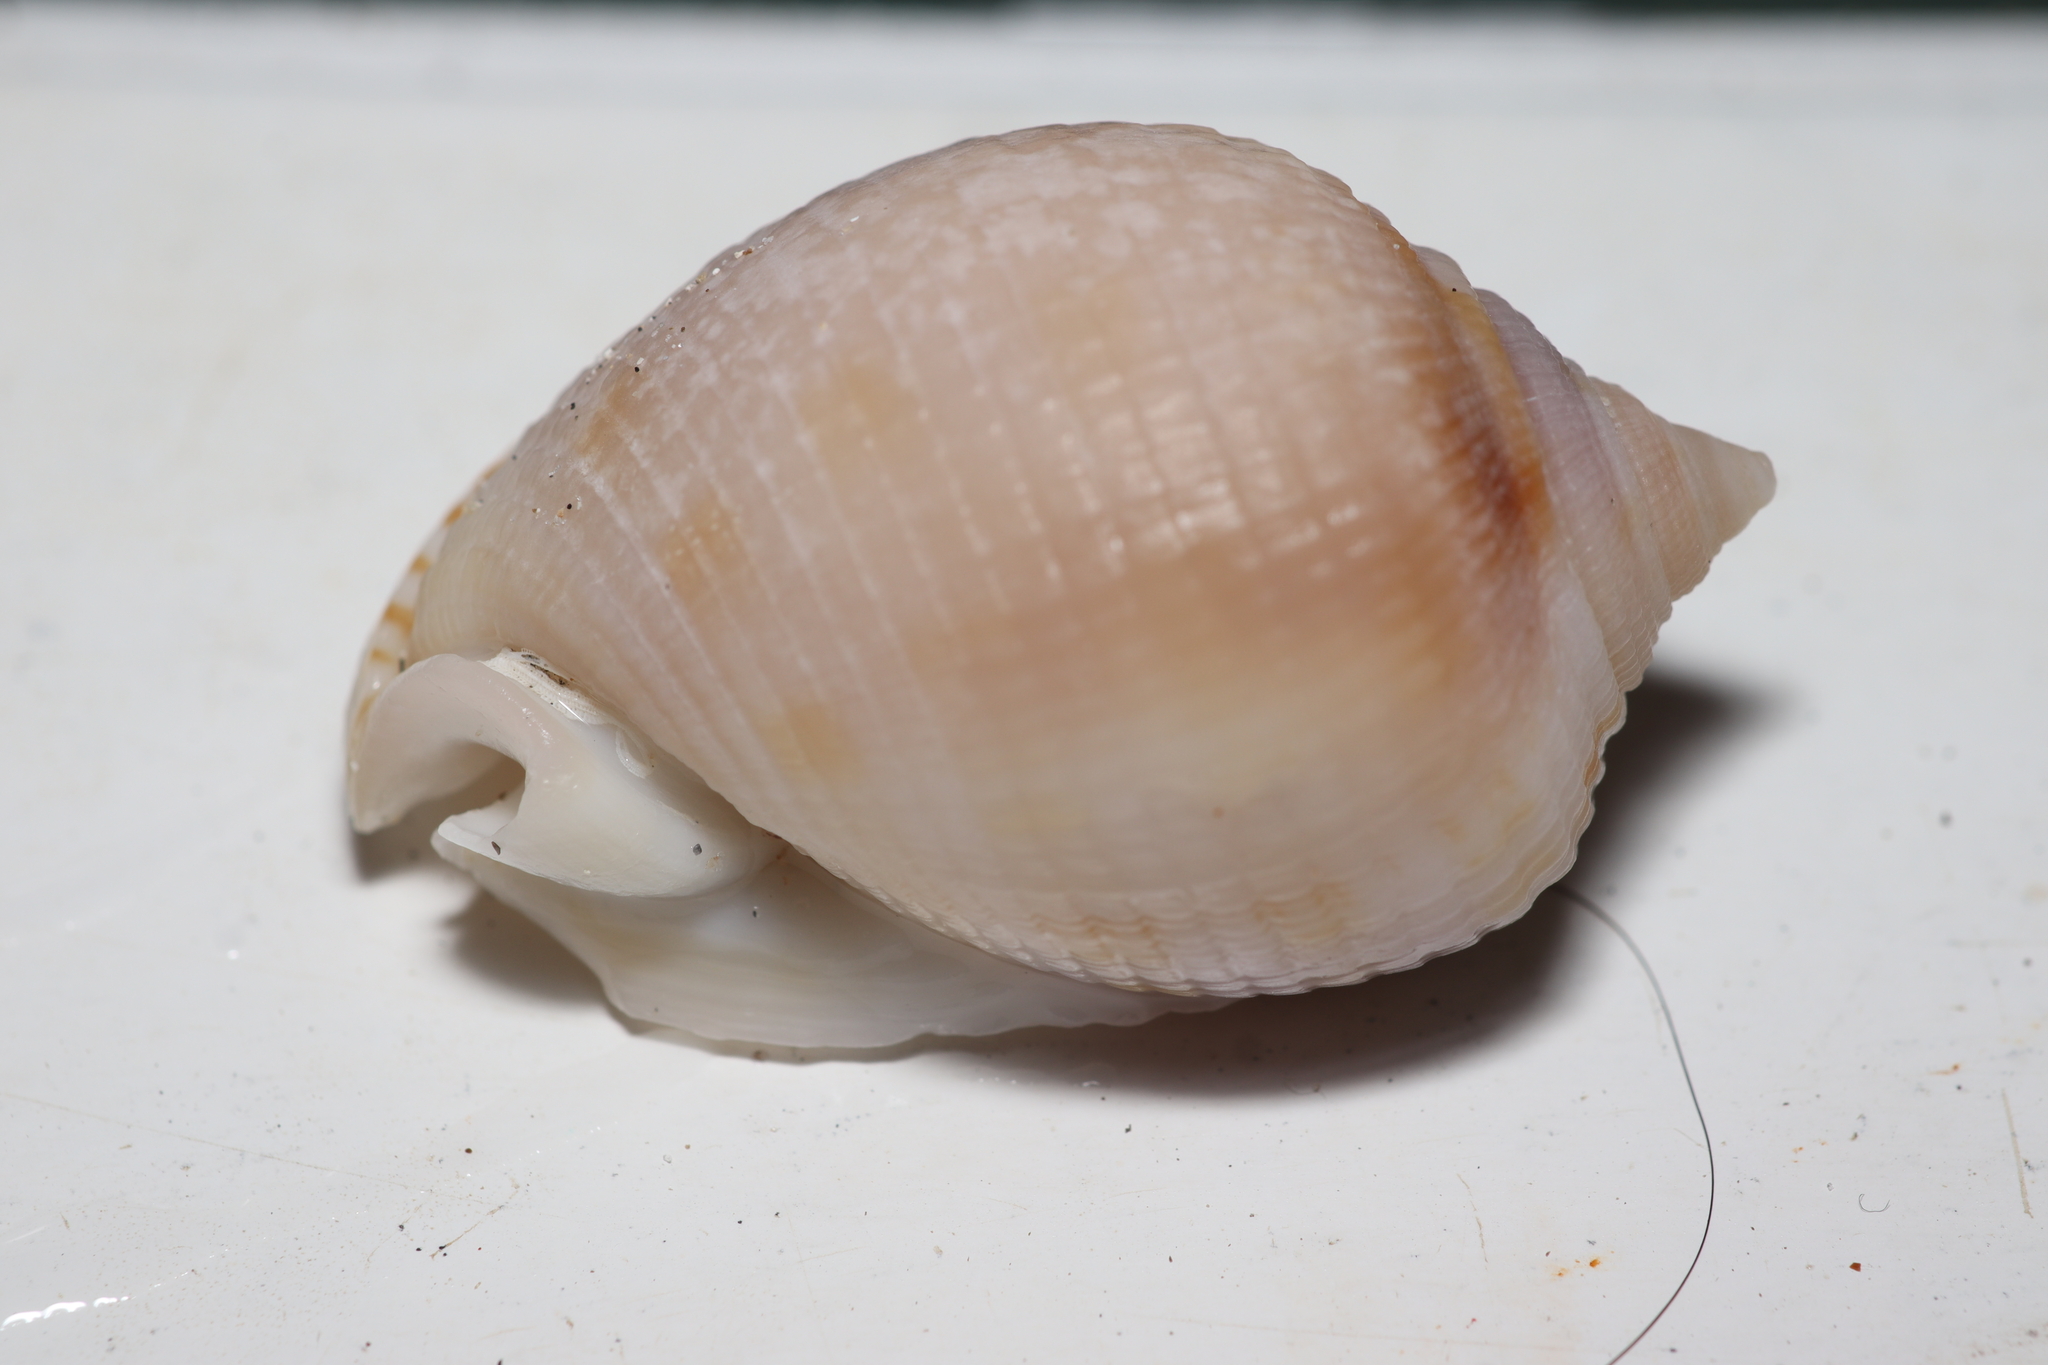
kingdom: Animalia
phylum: Mollusca
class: Gastropoda
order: Littorinimorpha
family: Cassidae
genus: Semicassis
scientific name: Semicassis granulata
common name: Scotch bonnet
